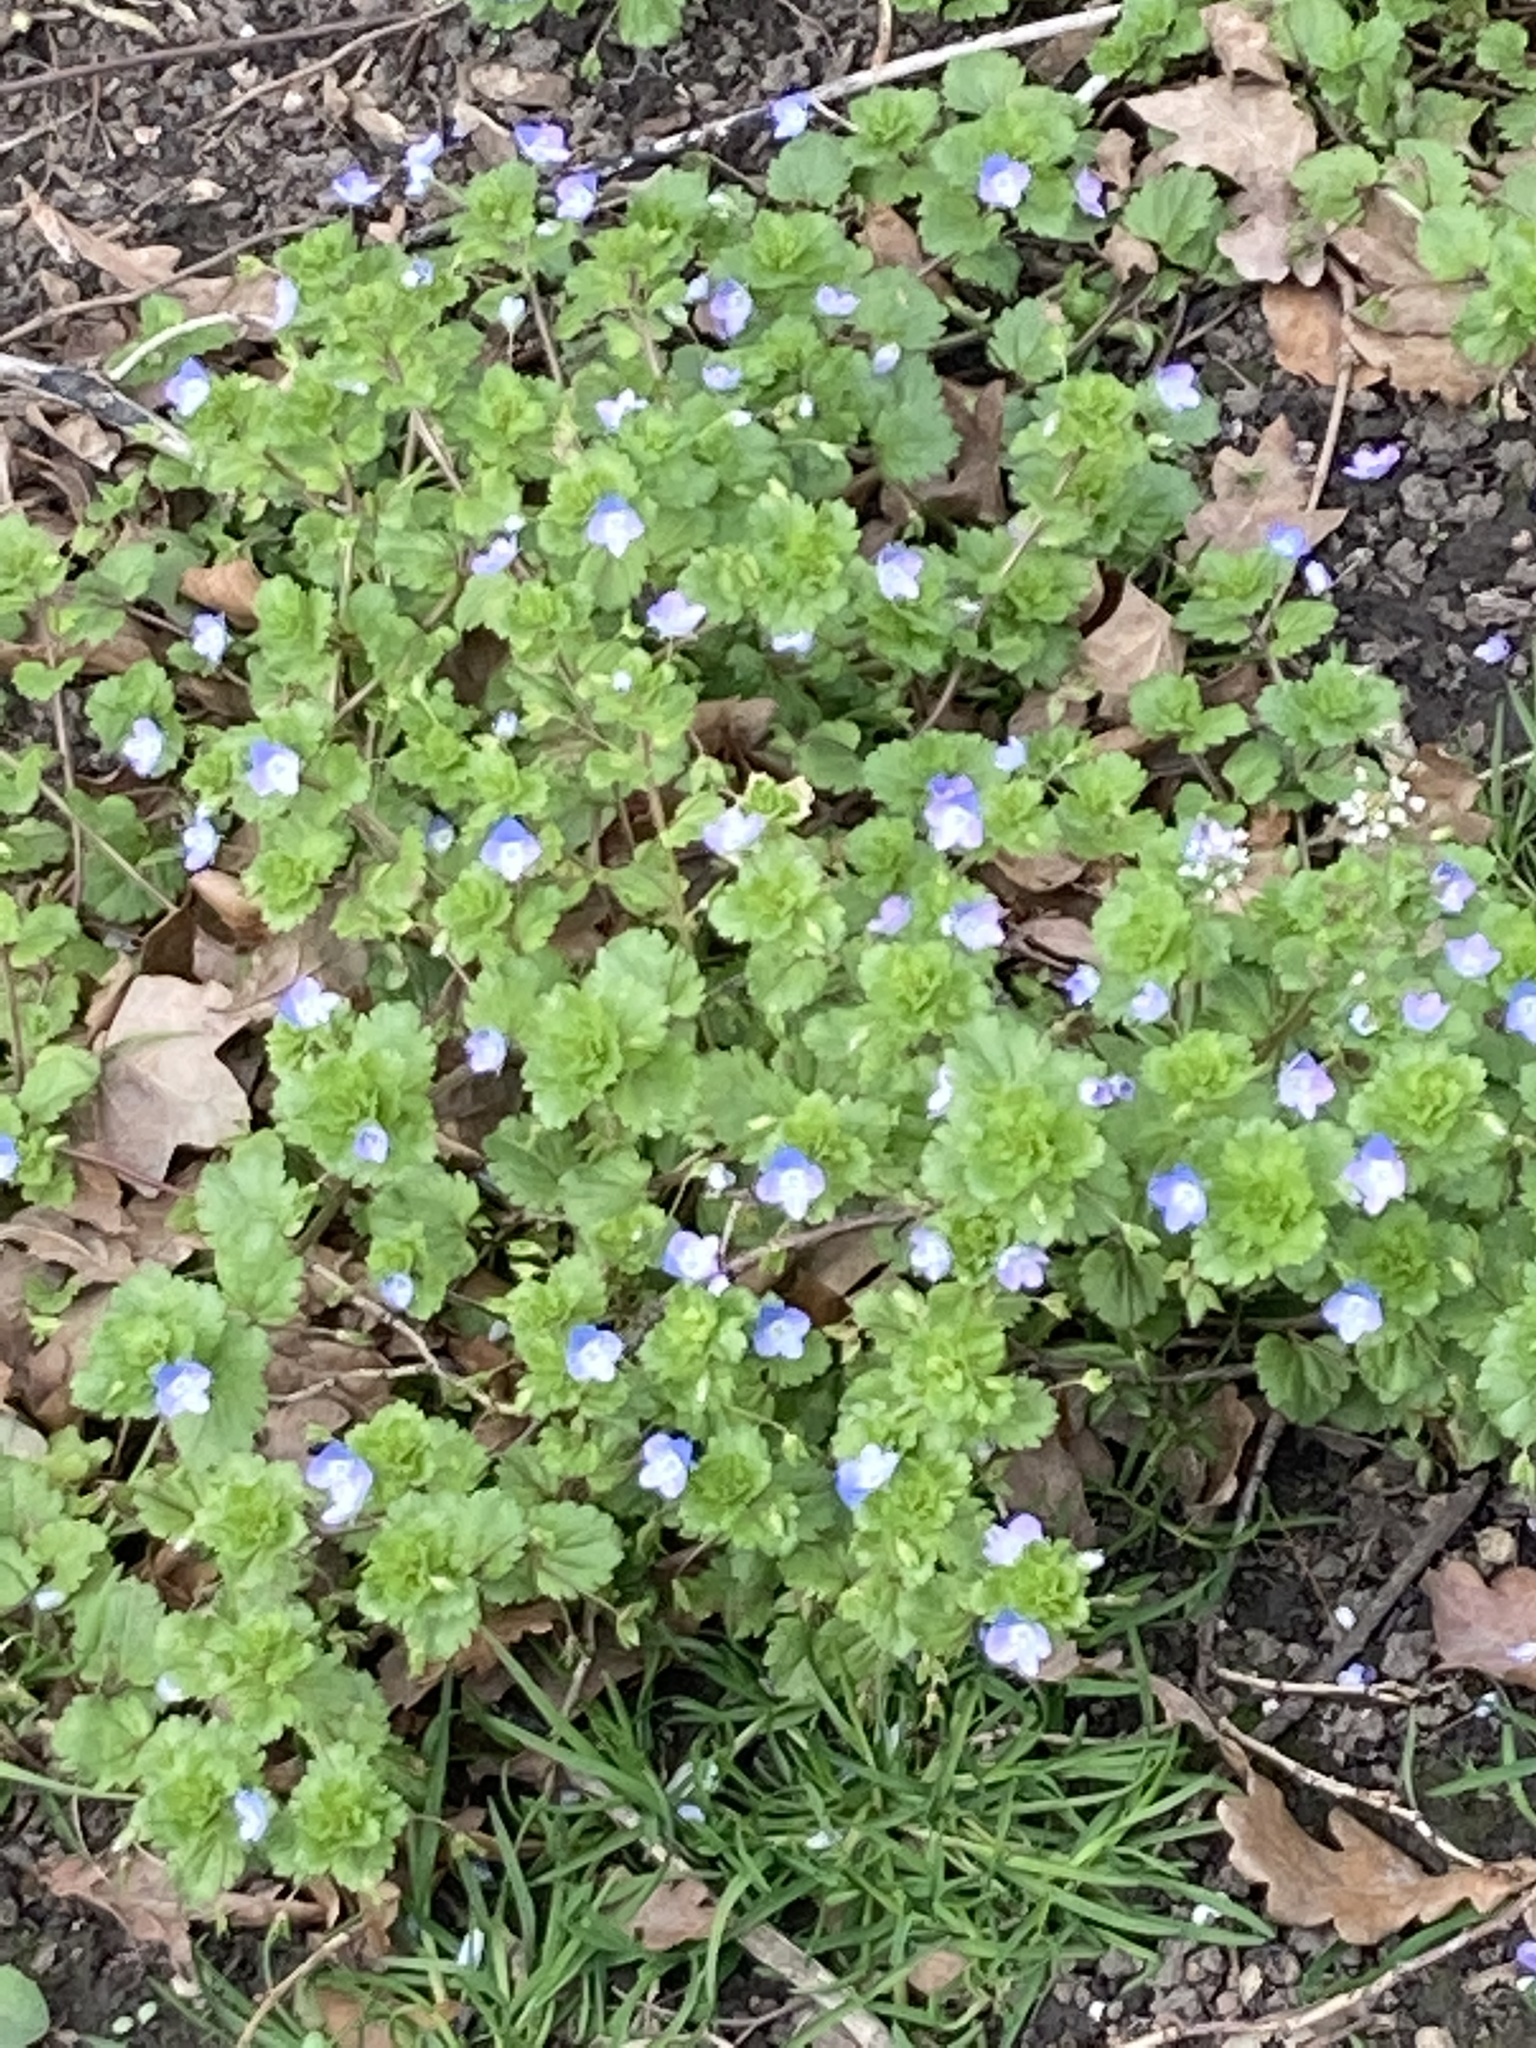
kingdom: Plantae
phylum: Tracheophyta
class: Magnoliopsida
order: Lamiales
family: Plantaginaceae
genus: Veronica
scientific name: Veronica persica
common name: Common field-speedwell
